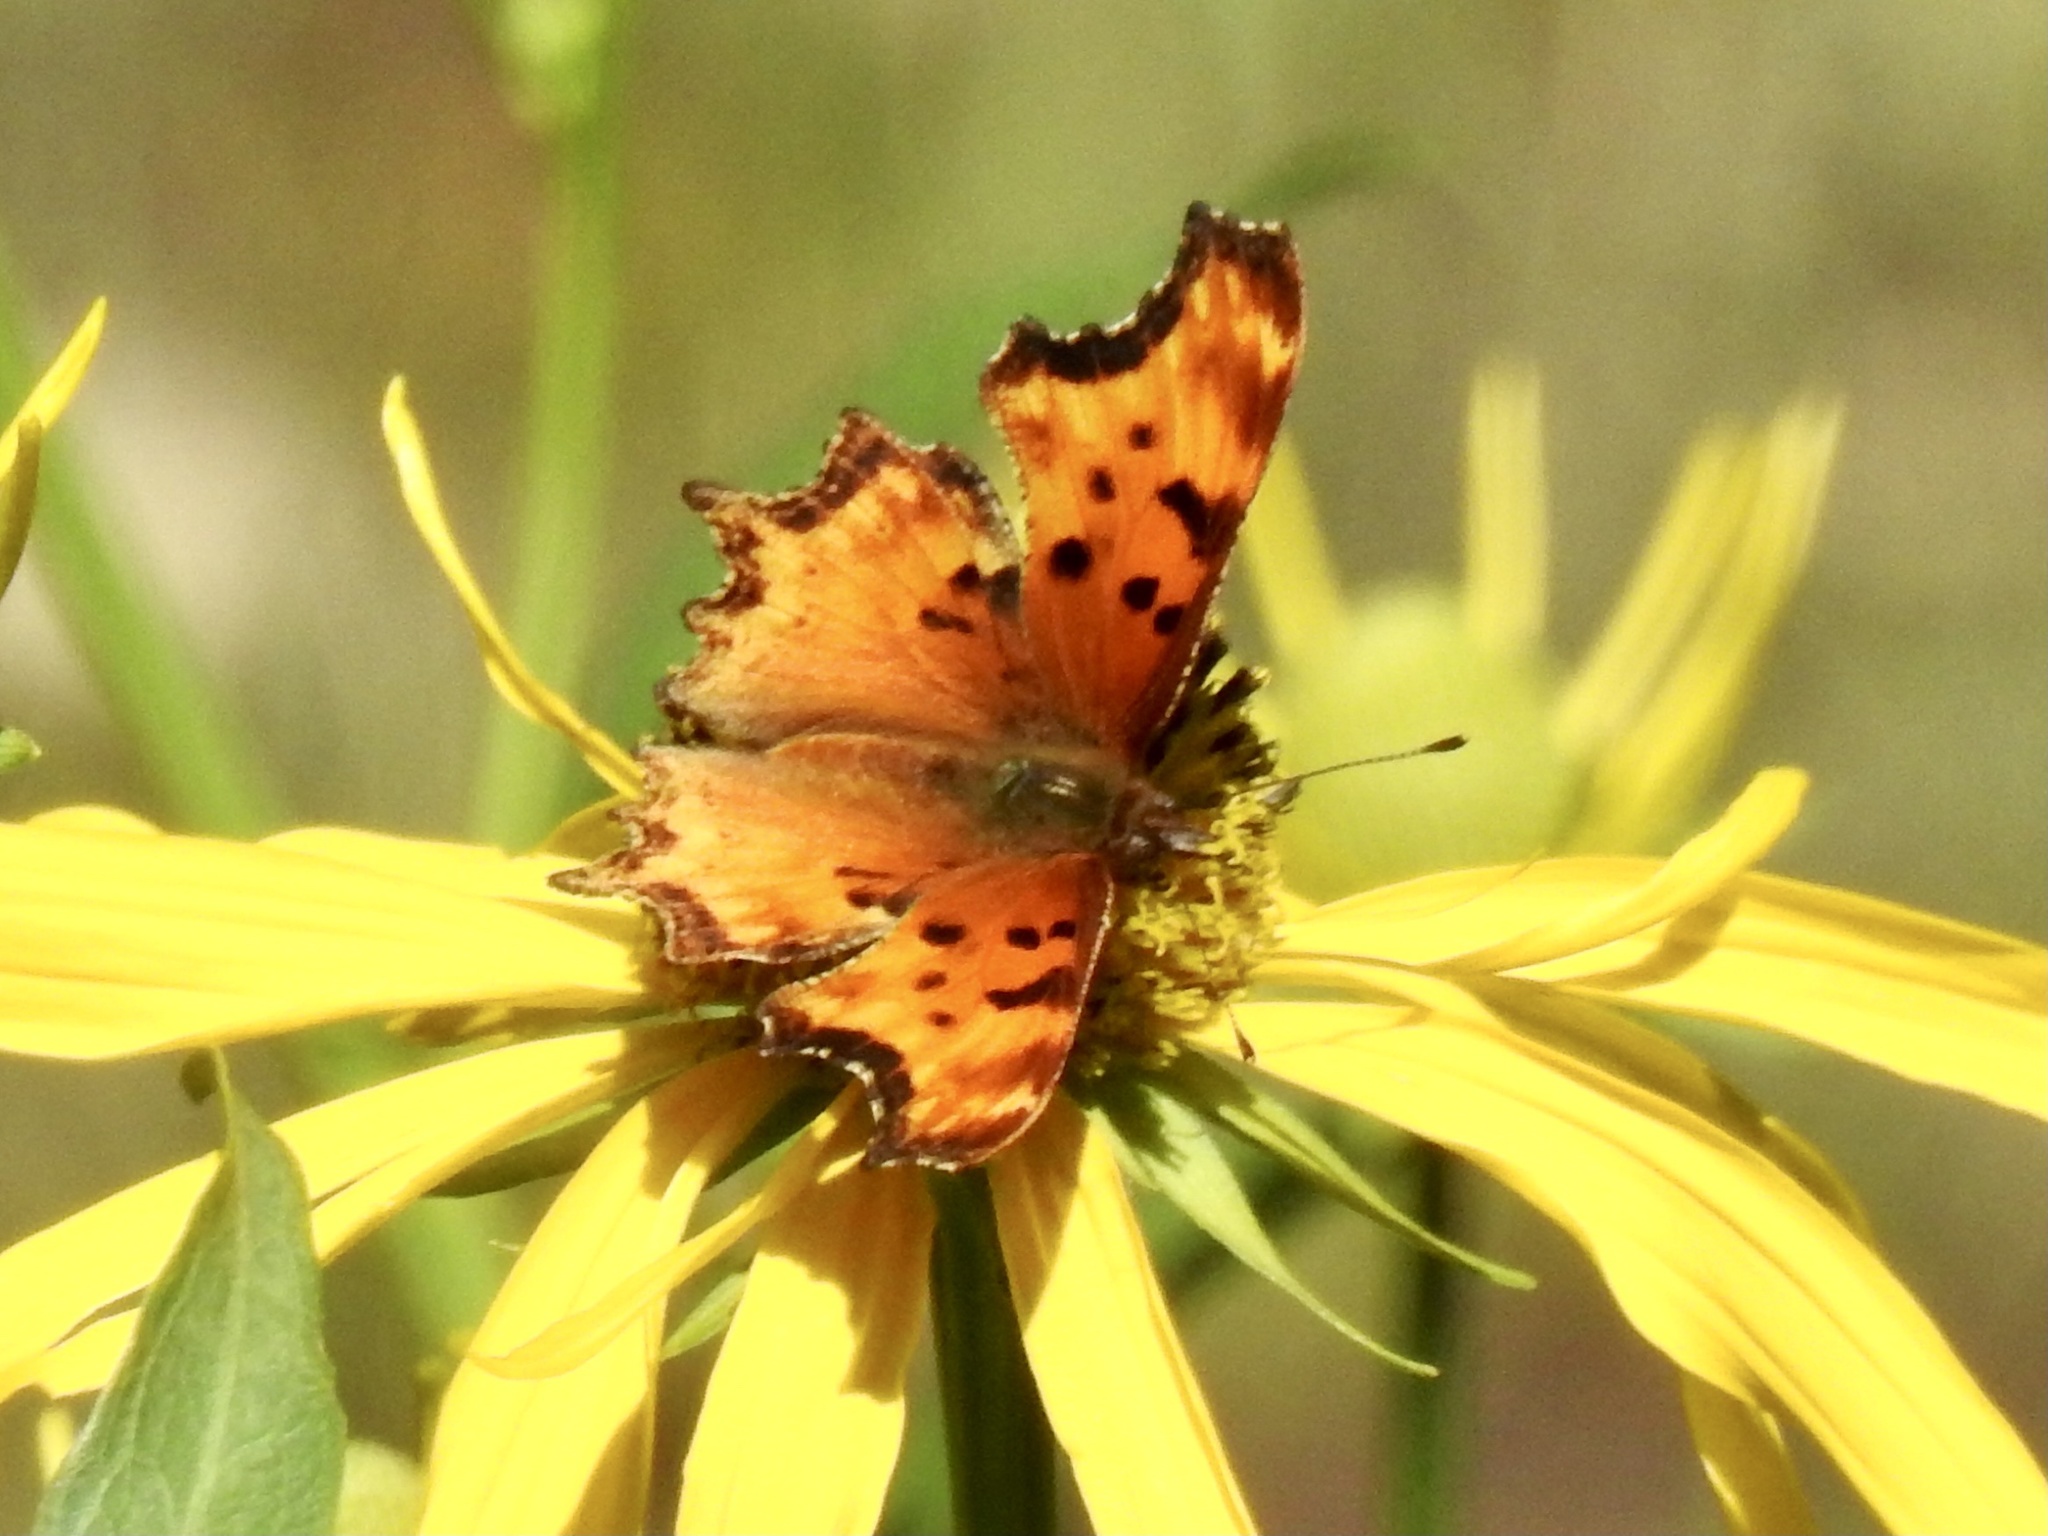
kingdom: Animalia
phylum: Arthropoda
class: Insecta
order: Lepidoptera
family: Nymphalidae
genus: Polygonia
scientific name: Polygonia gracilis
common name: Hoary comma
